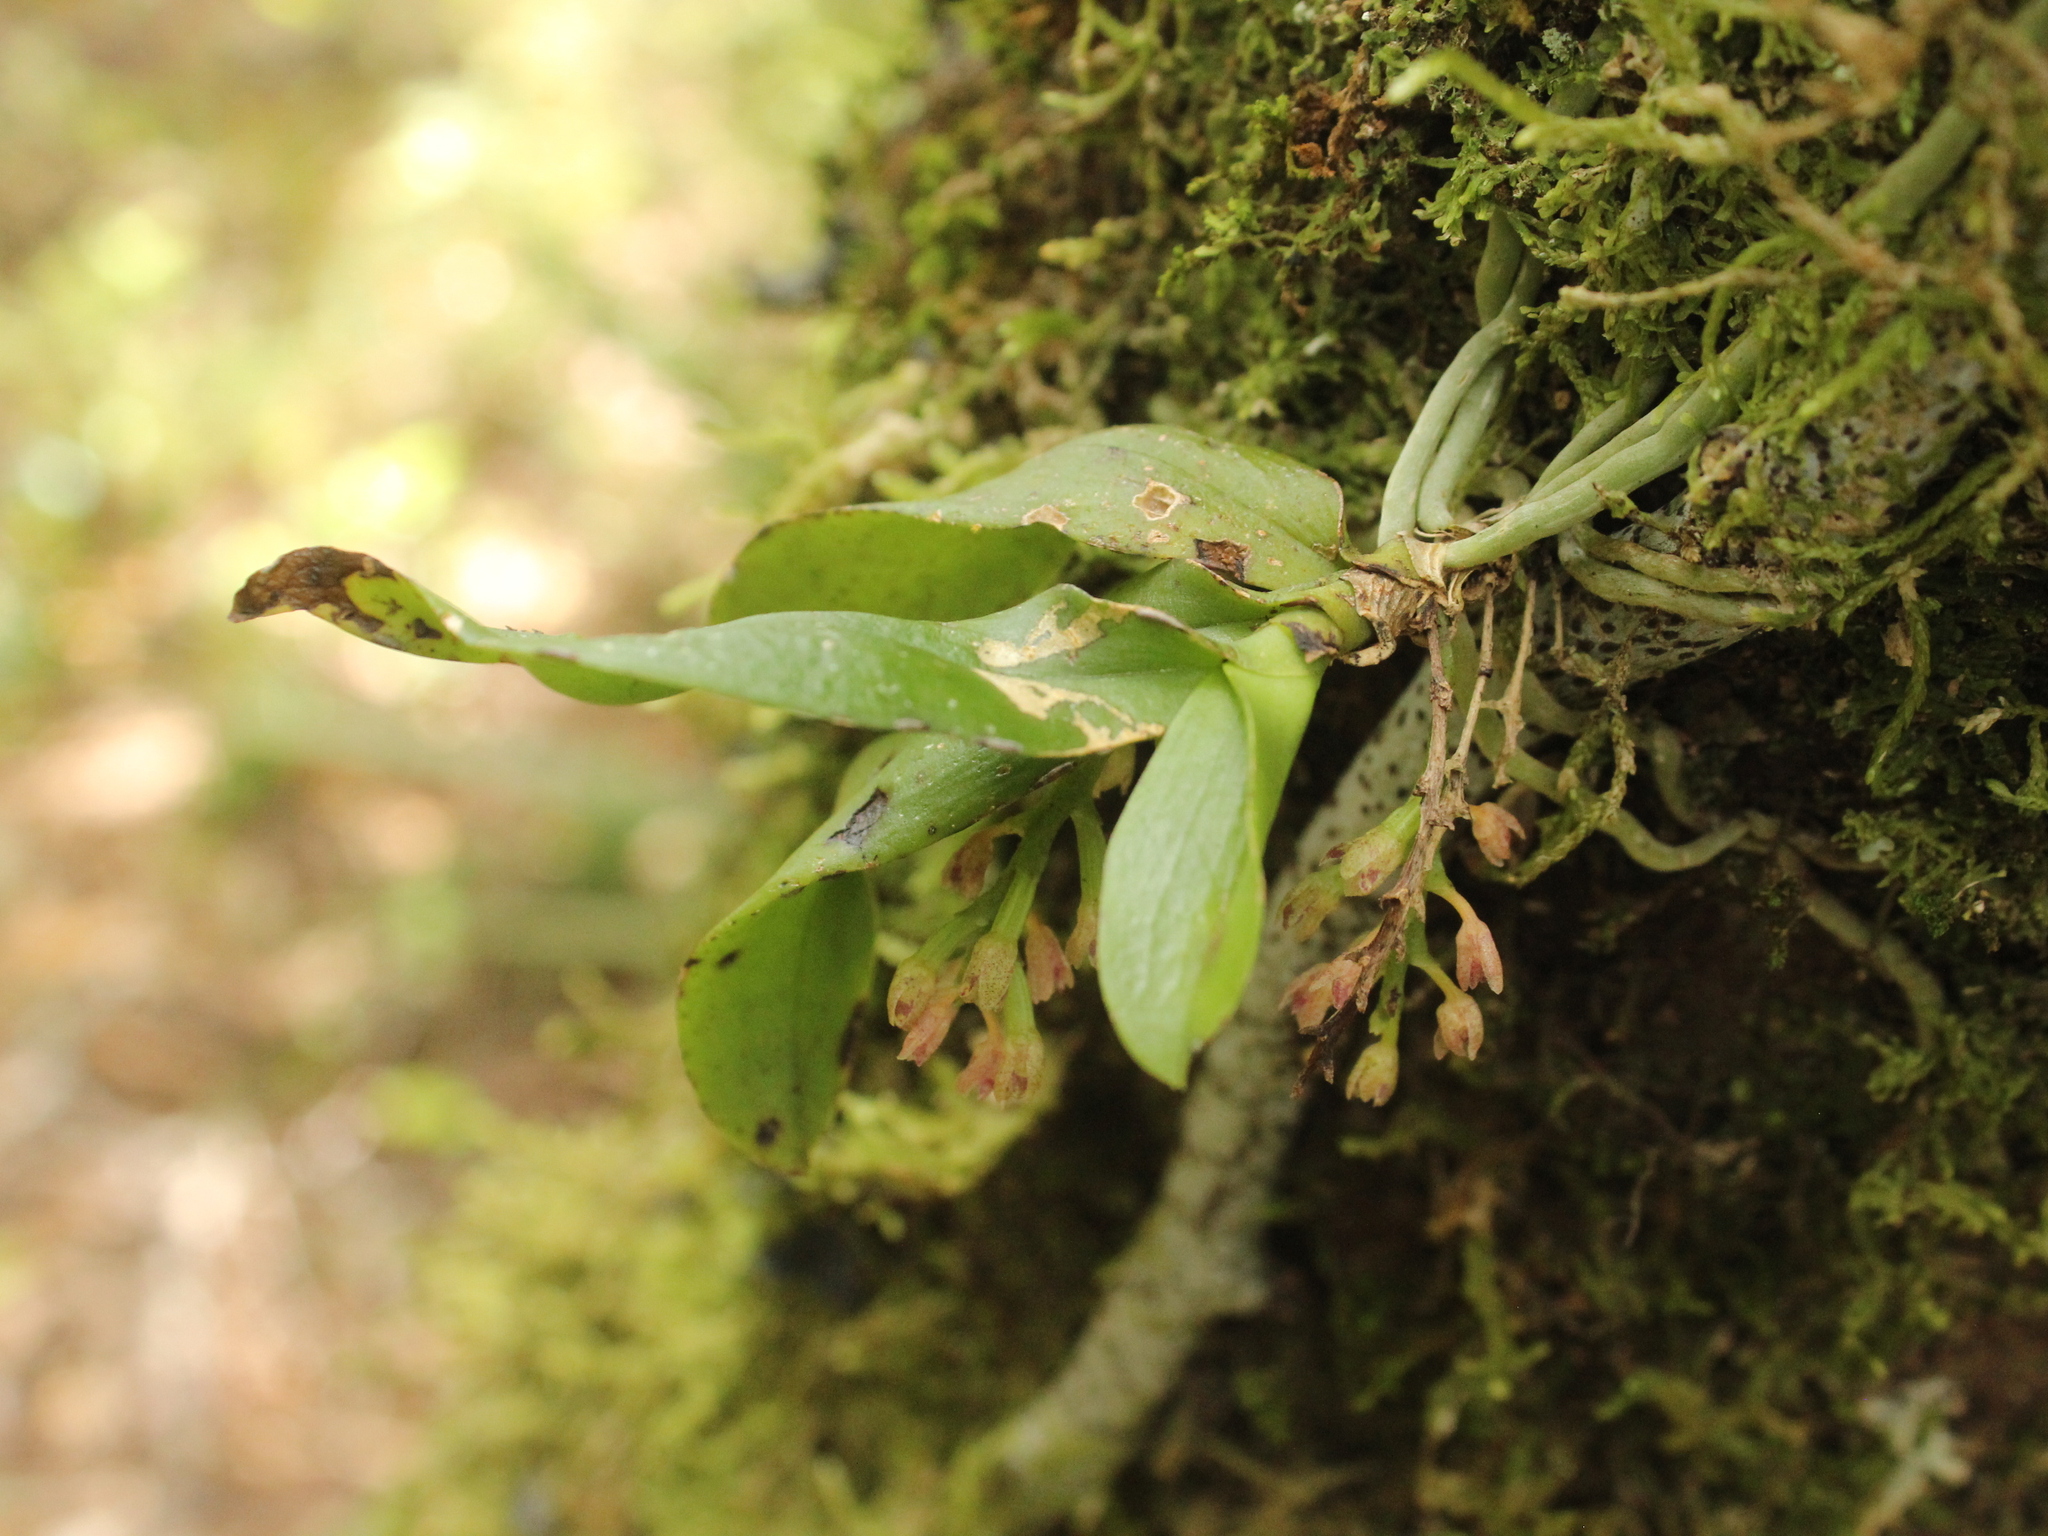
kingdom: Plantae
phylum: Tracheophyta
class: Liliopsida
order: Asparagales
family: Orchidaceae
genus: Drymoanthus
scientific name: Drymoanthus adversus
